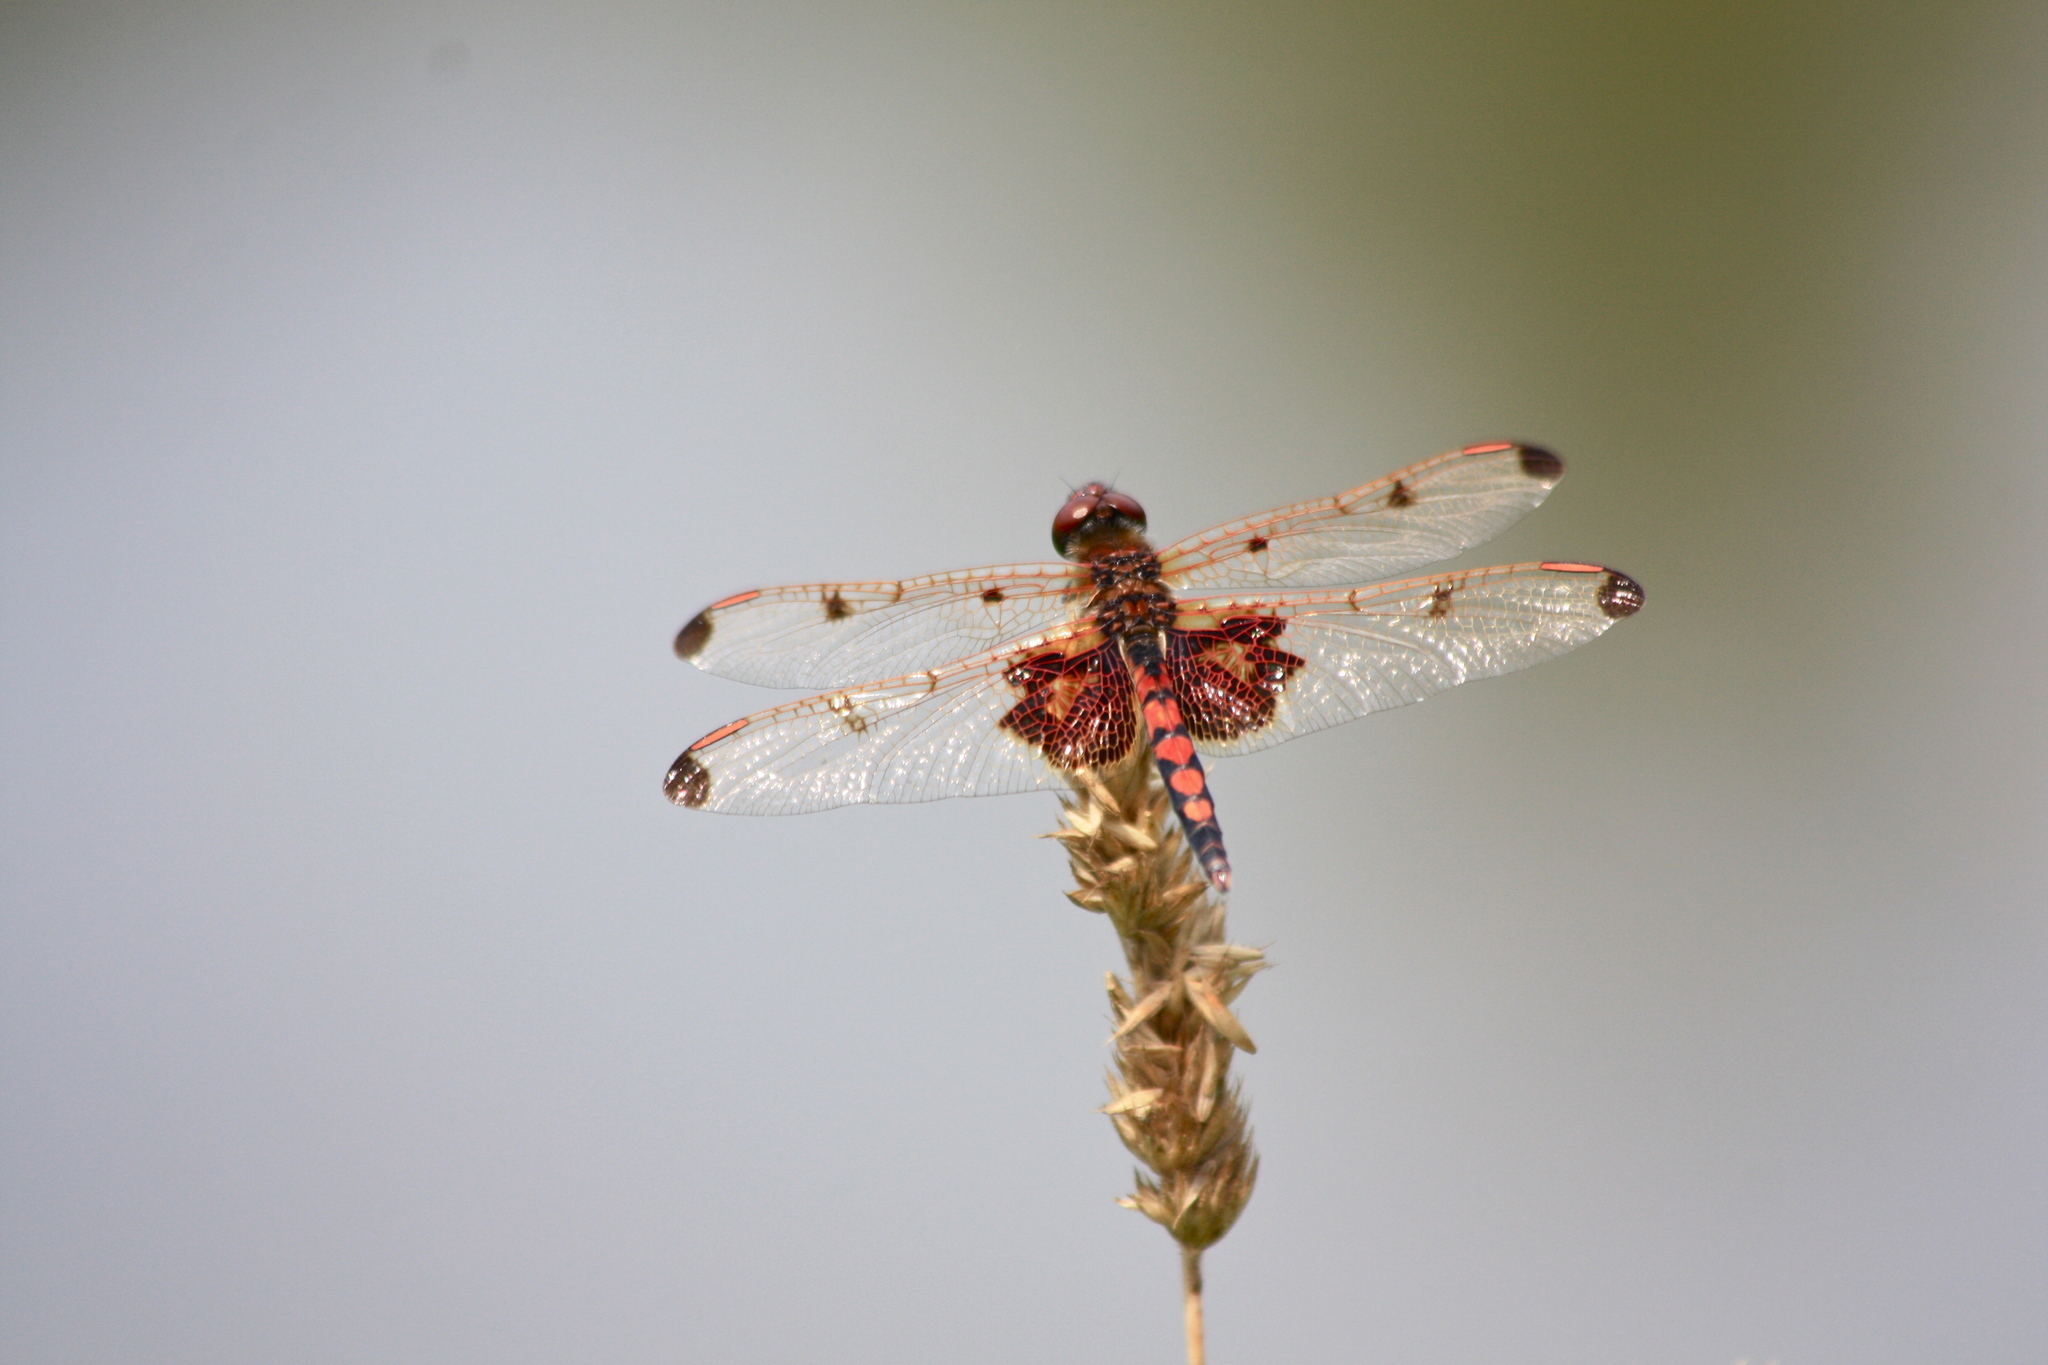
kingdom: Animalia
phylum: Arthropoda
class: Insecta
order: Odonata
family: Libellulidae
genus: Celithemis
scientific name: Celithemis elisa
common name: Calico pennant
